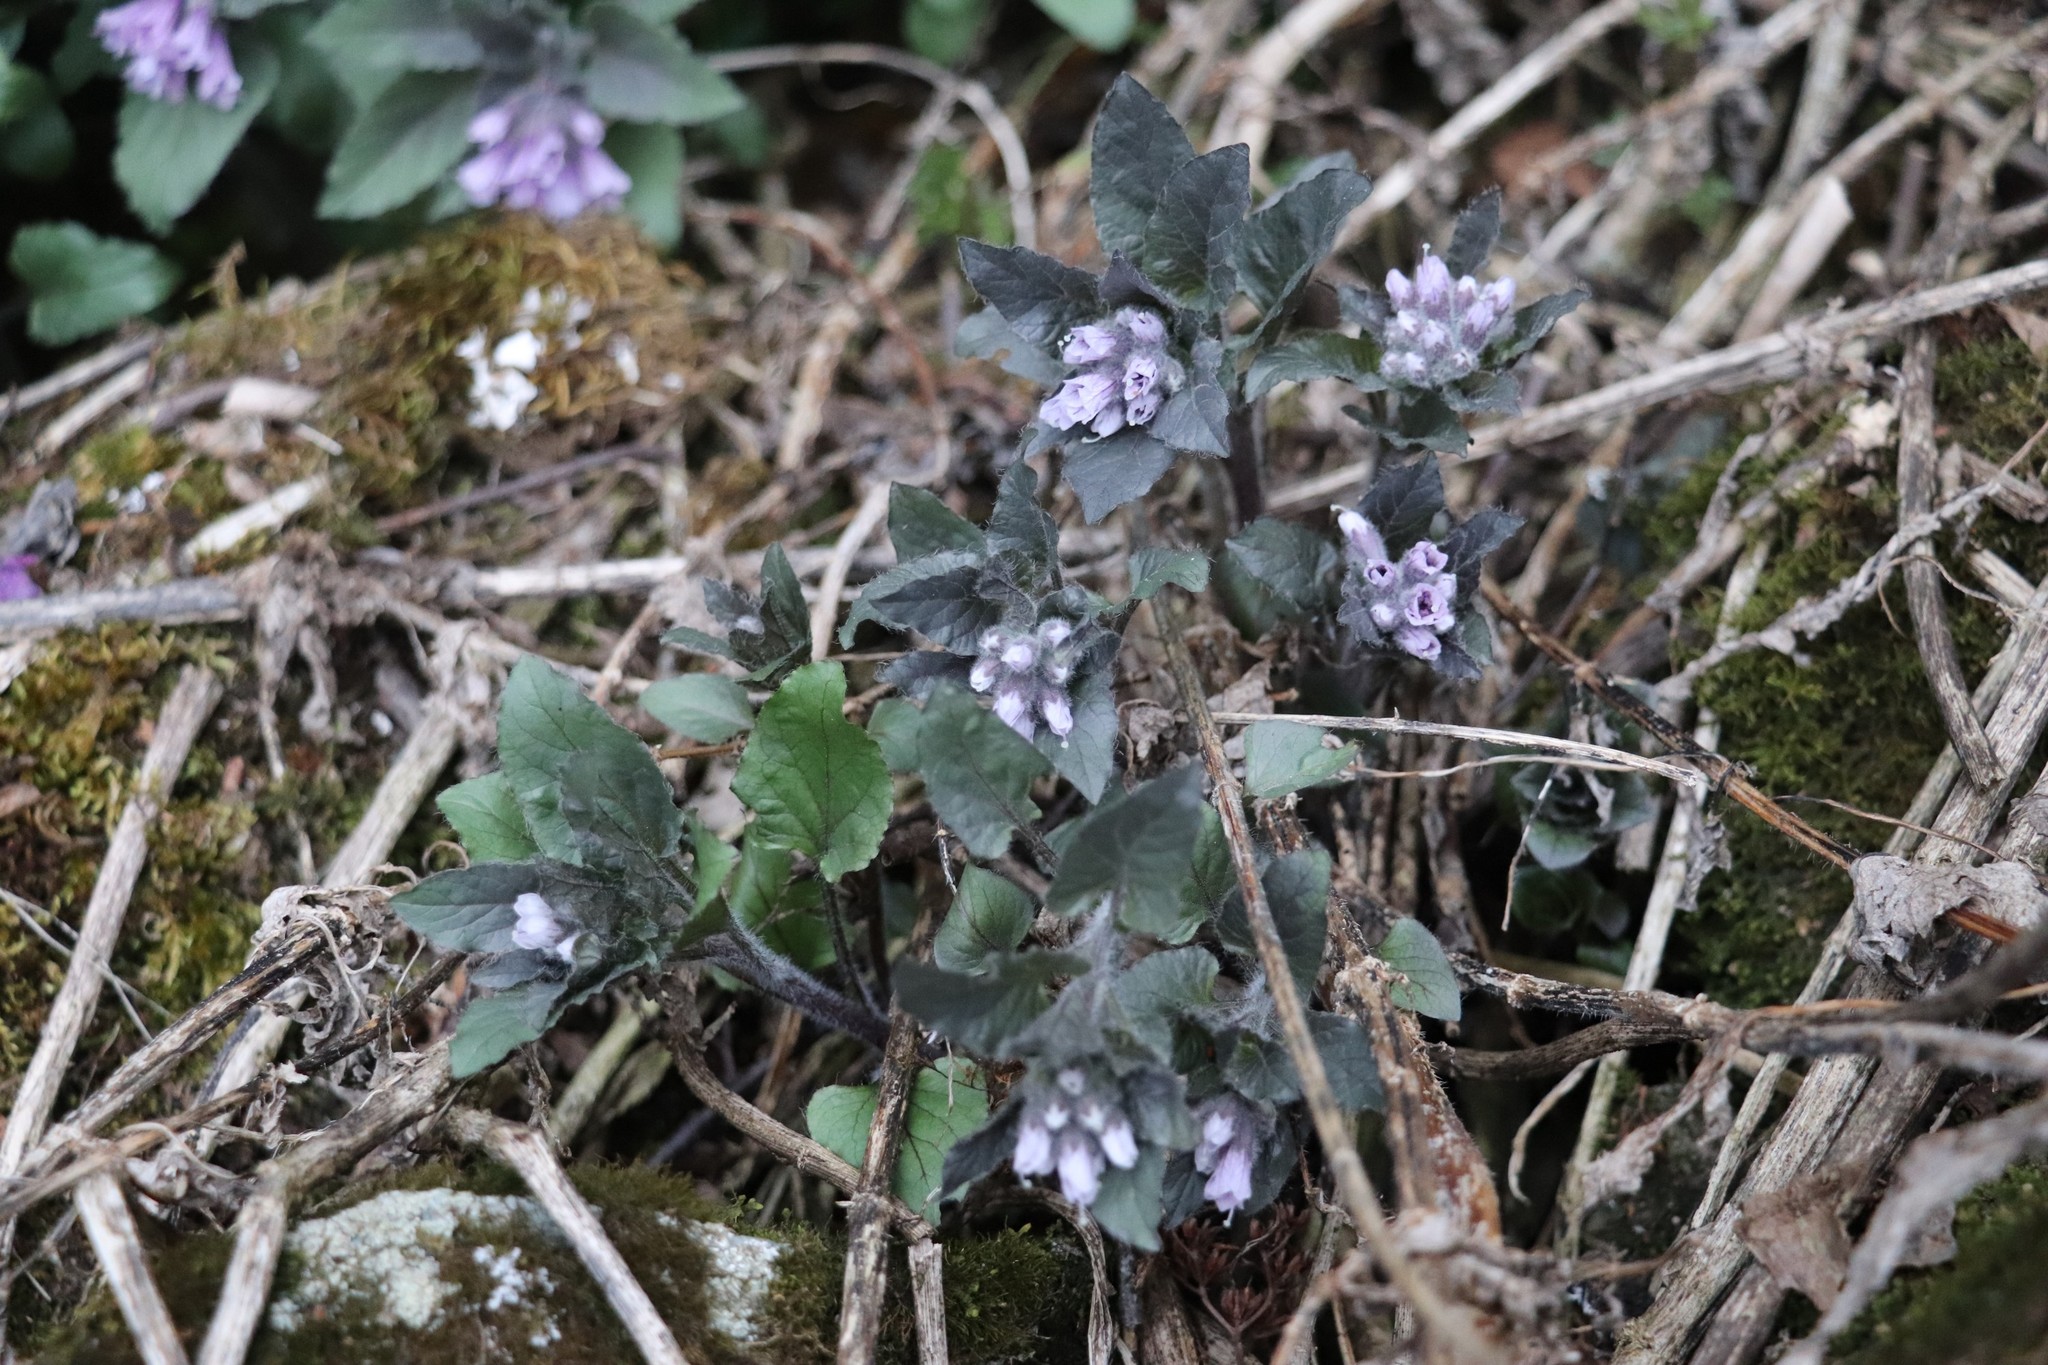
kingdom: Plantae
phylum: Tracheophyta
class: Magnoliopsida
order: Solanales
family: Solanaceae
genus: Physochlaina
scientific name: Physochlaina physaloides
